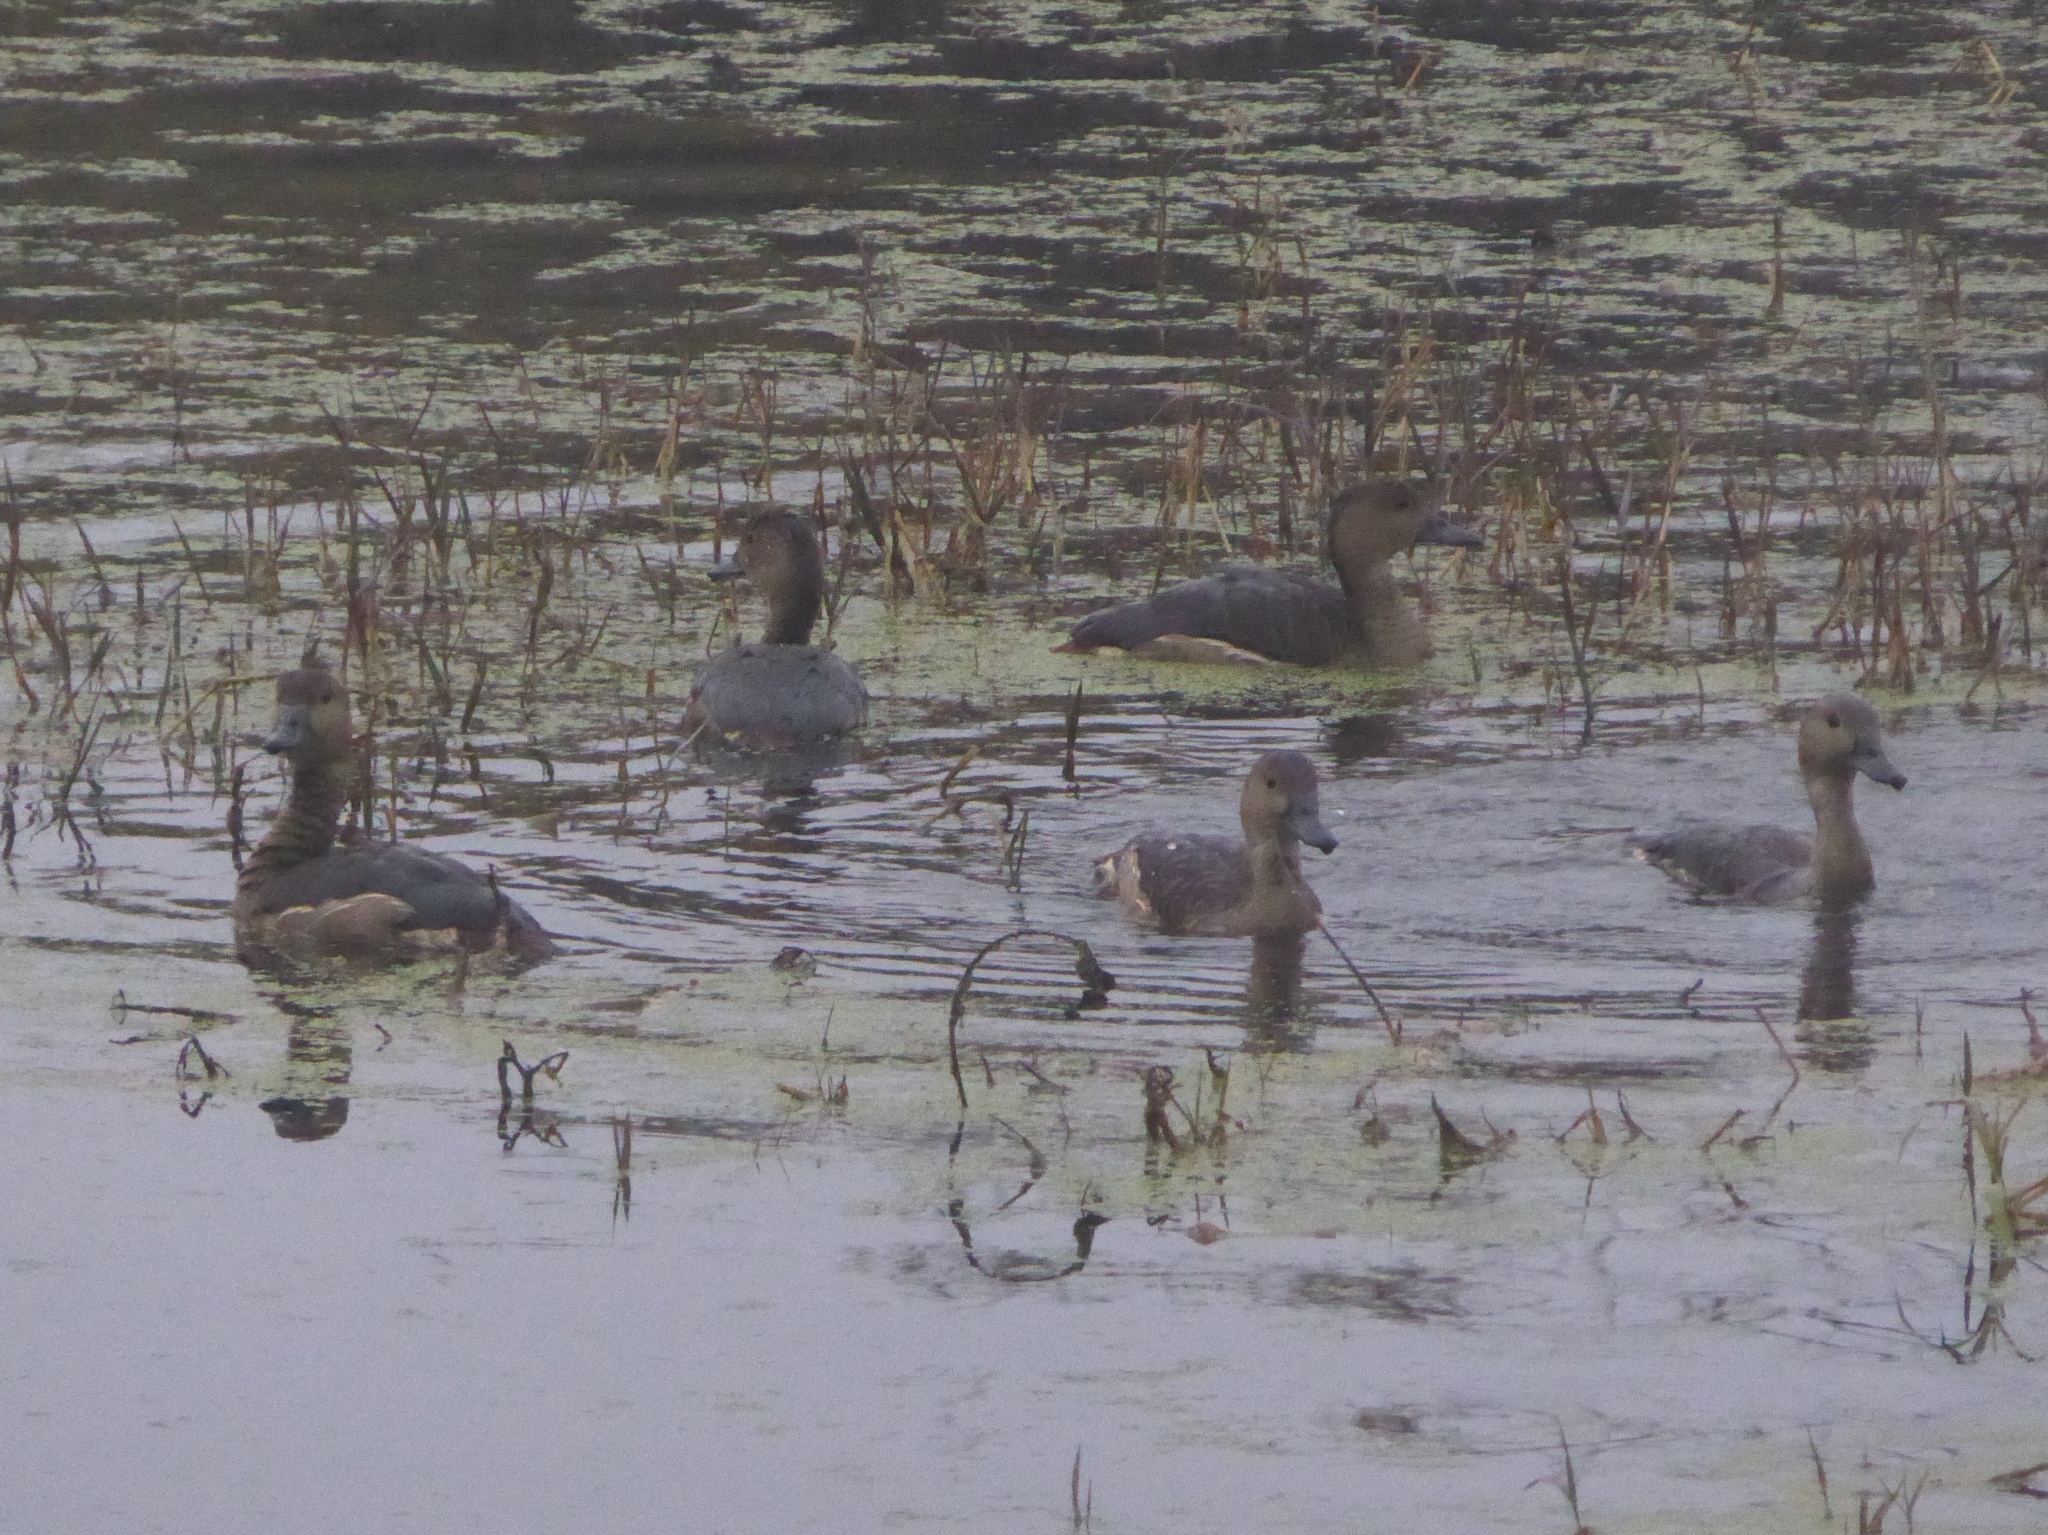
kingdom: Animalia
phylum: Chordata
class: Aves
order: Anseriformes
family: Anatidae
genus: Dendrocygna
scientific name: Dendrocygna javanica
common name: Lesser whistling-duck
